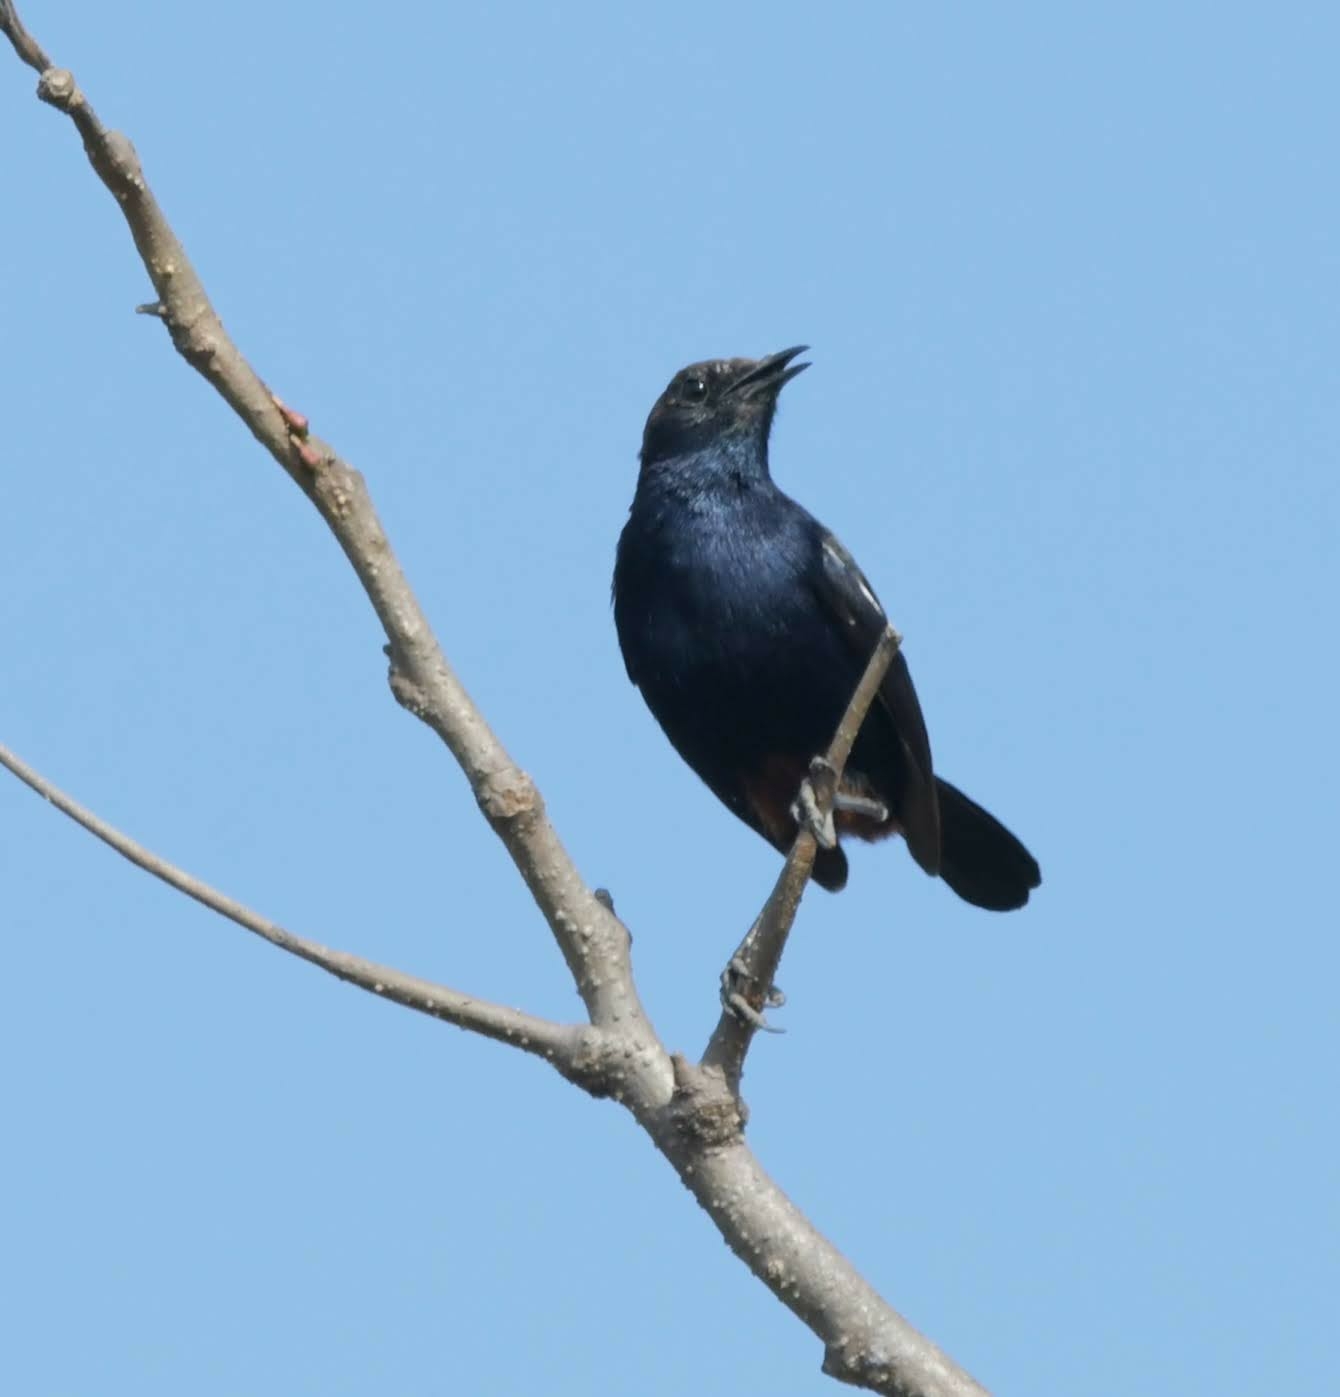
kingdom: Animalia
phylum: Chordata
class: Aves
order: Passeriformes
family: Muscicapidae
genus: Saxicoloides
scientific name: Saxicoloides fulicatus
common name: Indian robin
